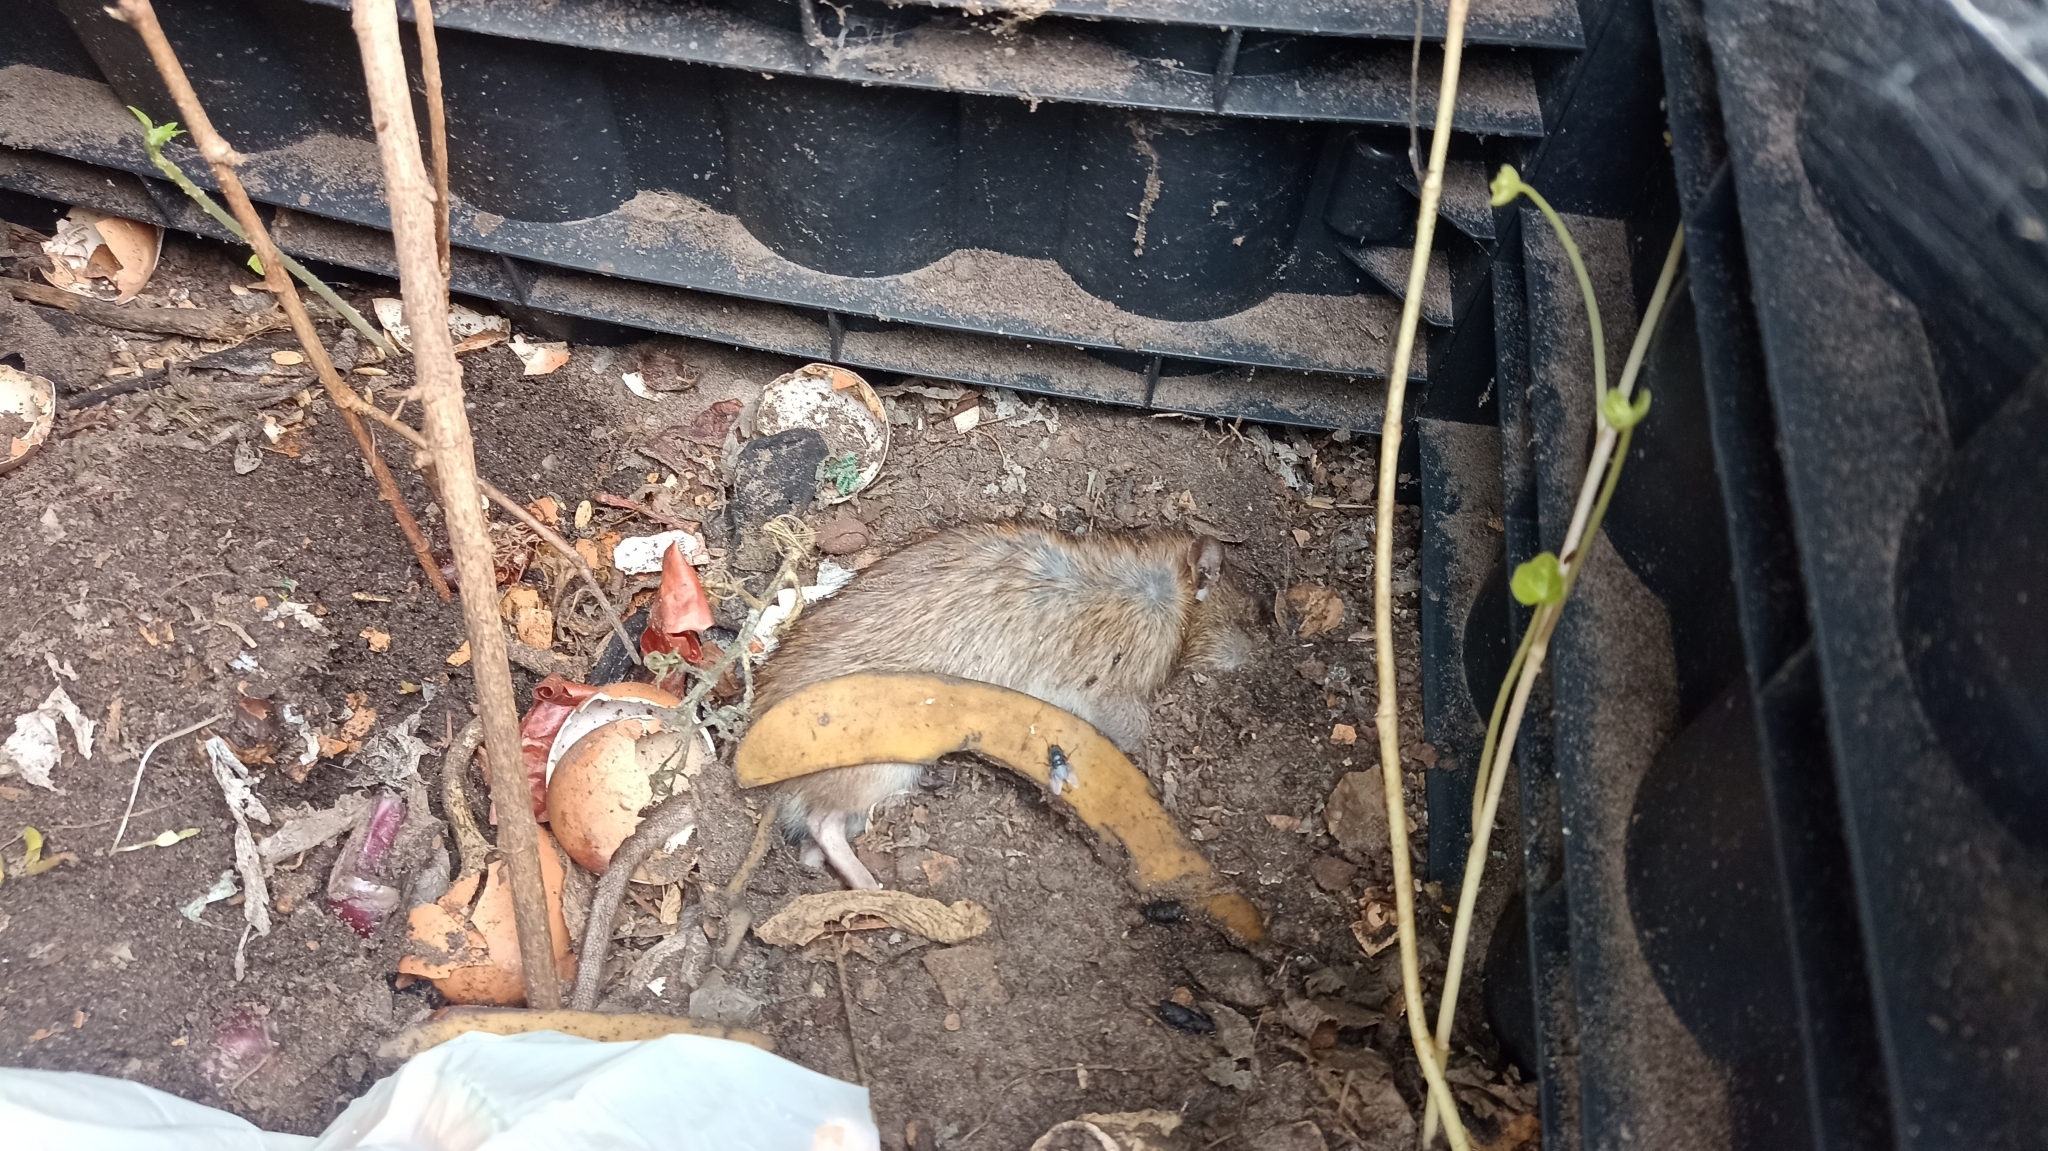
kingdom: Animalia
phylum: Chordata
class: Mammalia
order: Rodentia
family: Muridae
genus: Rattus
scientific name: Rattus norvegicus
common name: Brown rat
